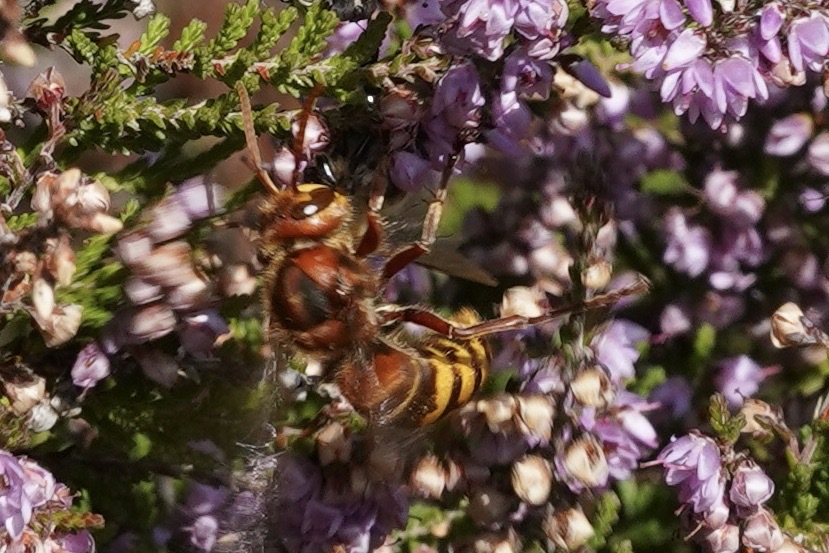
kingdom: Animalia
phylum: Arthropoda
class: Insecta
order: Hymenoptera
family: Vespidae
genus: Vespa
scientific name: Vespa crabro
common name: Hornet
